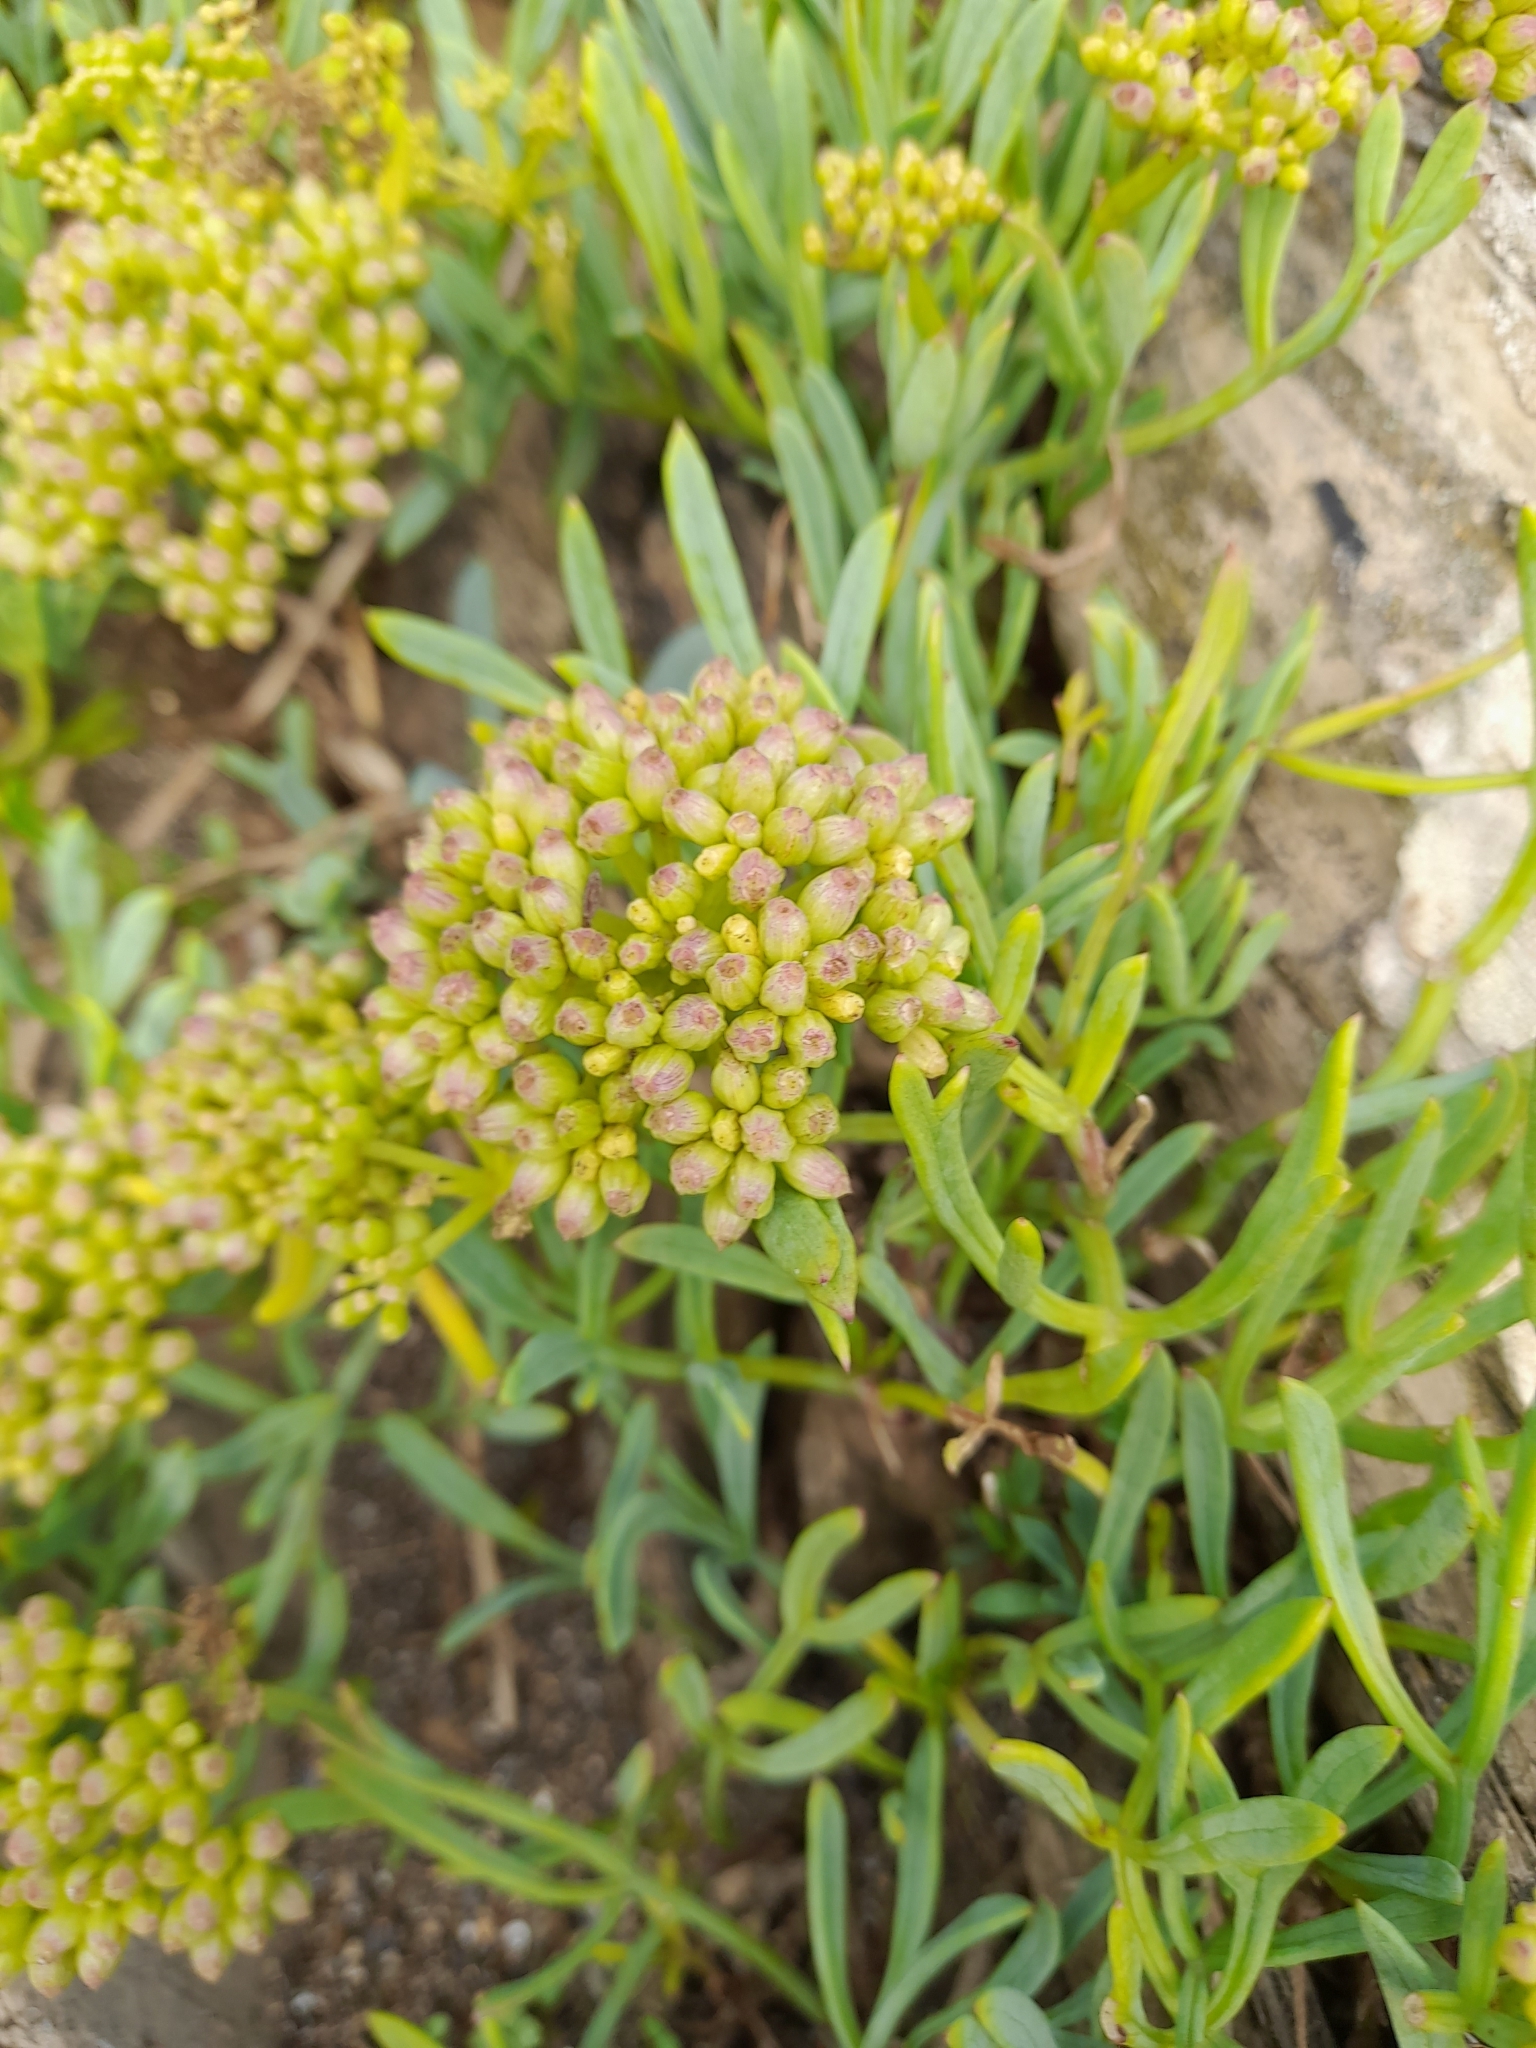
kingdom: Plantae
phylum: Tracheophyta
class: Magnoliopsida
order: Apiales
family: Apiaceae
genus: Crithmum
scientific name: Crithmum maritimum
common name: Rock samphire
